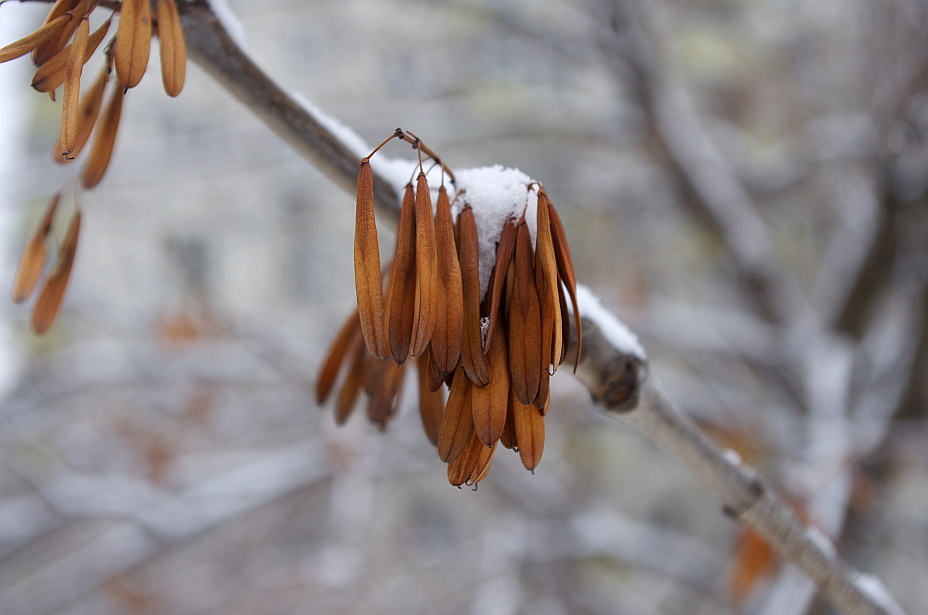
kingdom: Plantae
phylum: Tracheophyta
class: Magnoliopsida
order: Lamiales
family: Oleaceae
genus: Fraxinus
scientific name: Fraxinus pennsylvanica
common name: Green ash
